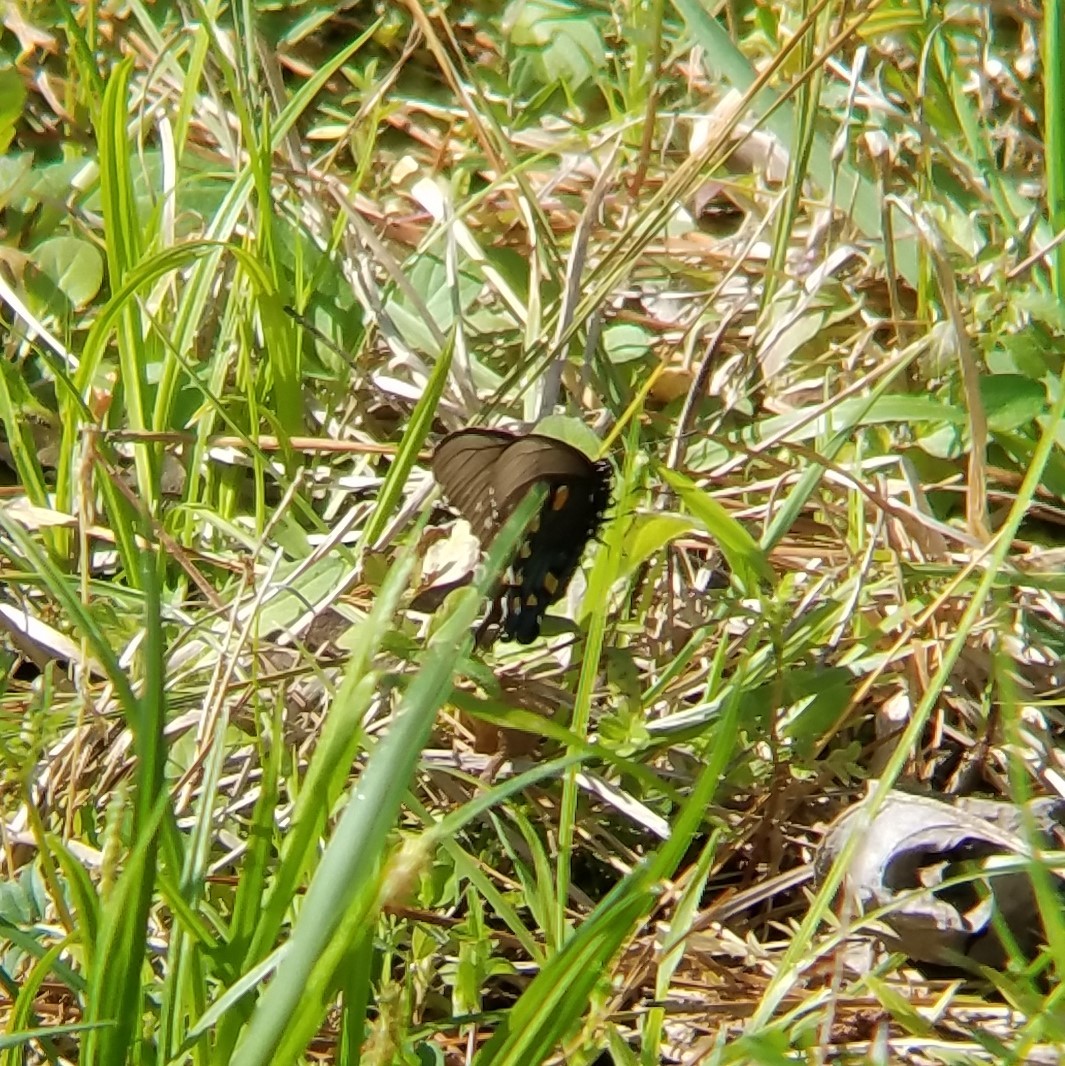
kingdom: Animalia
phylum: Arthropoda
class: Insecta
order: Lepidoptera
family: Papilionidae
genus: Battus
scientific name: Battus philenor
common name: Pipevine swallowtail
